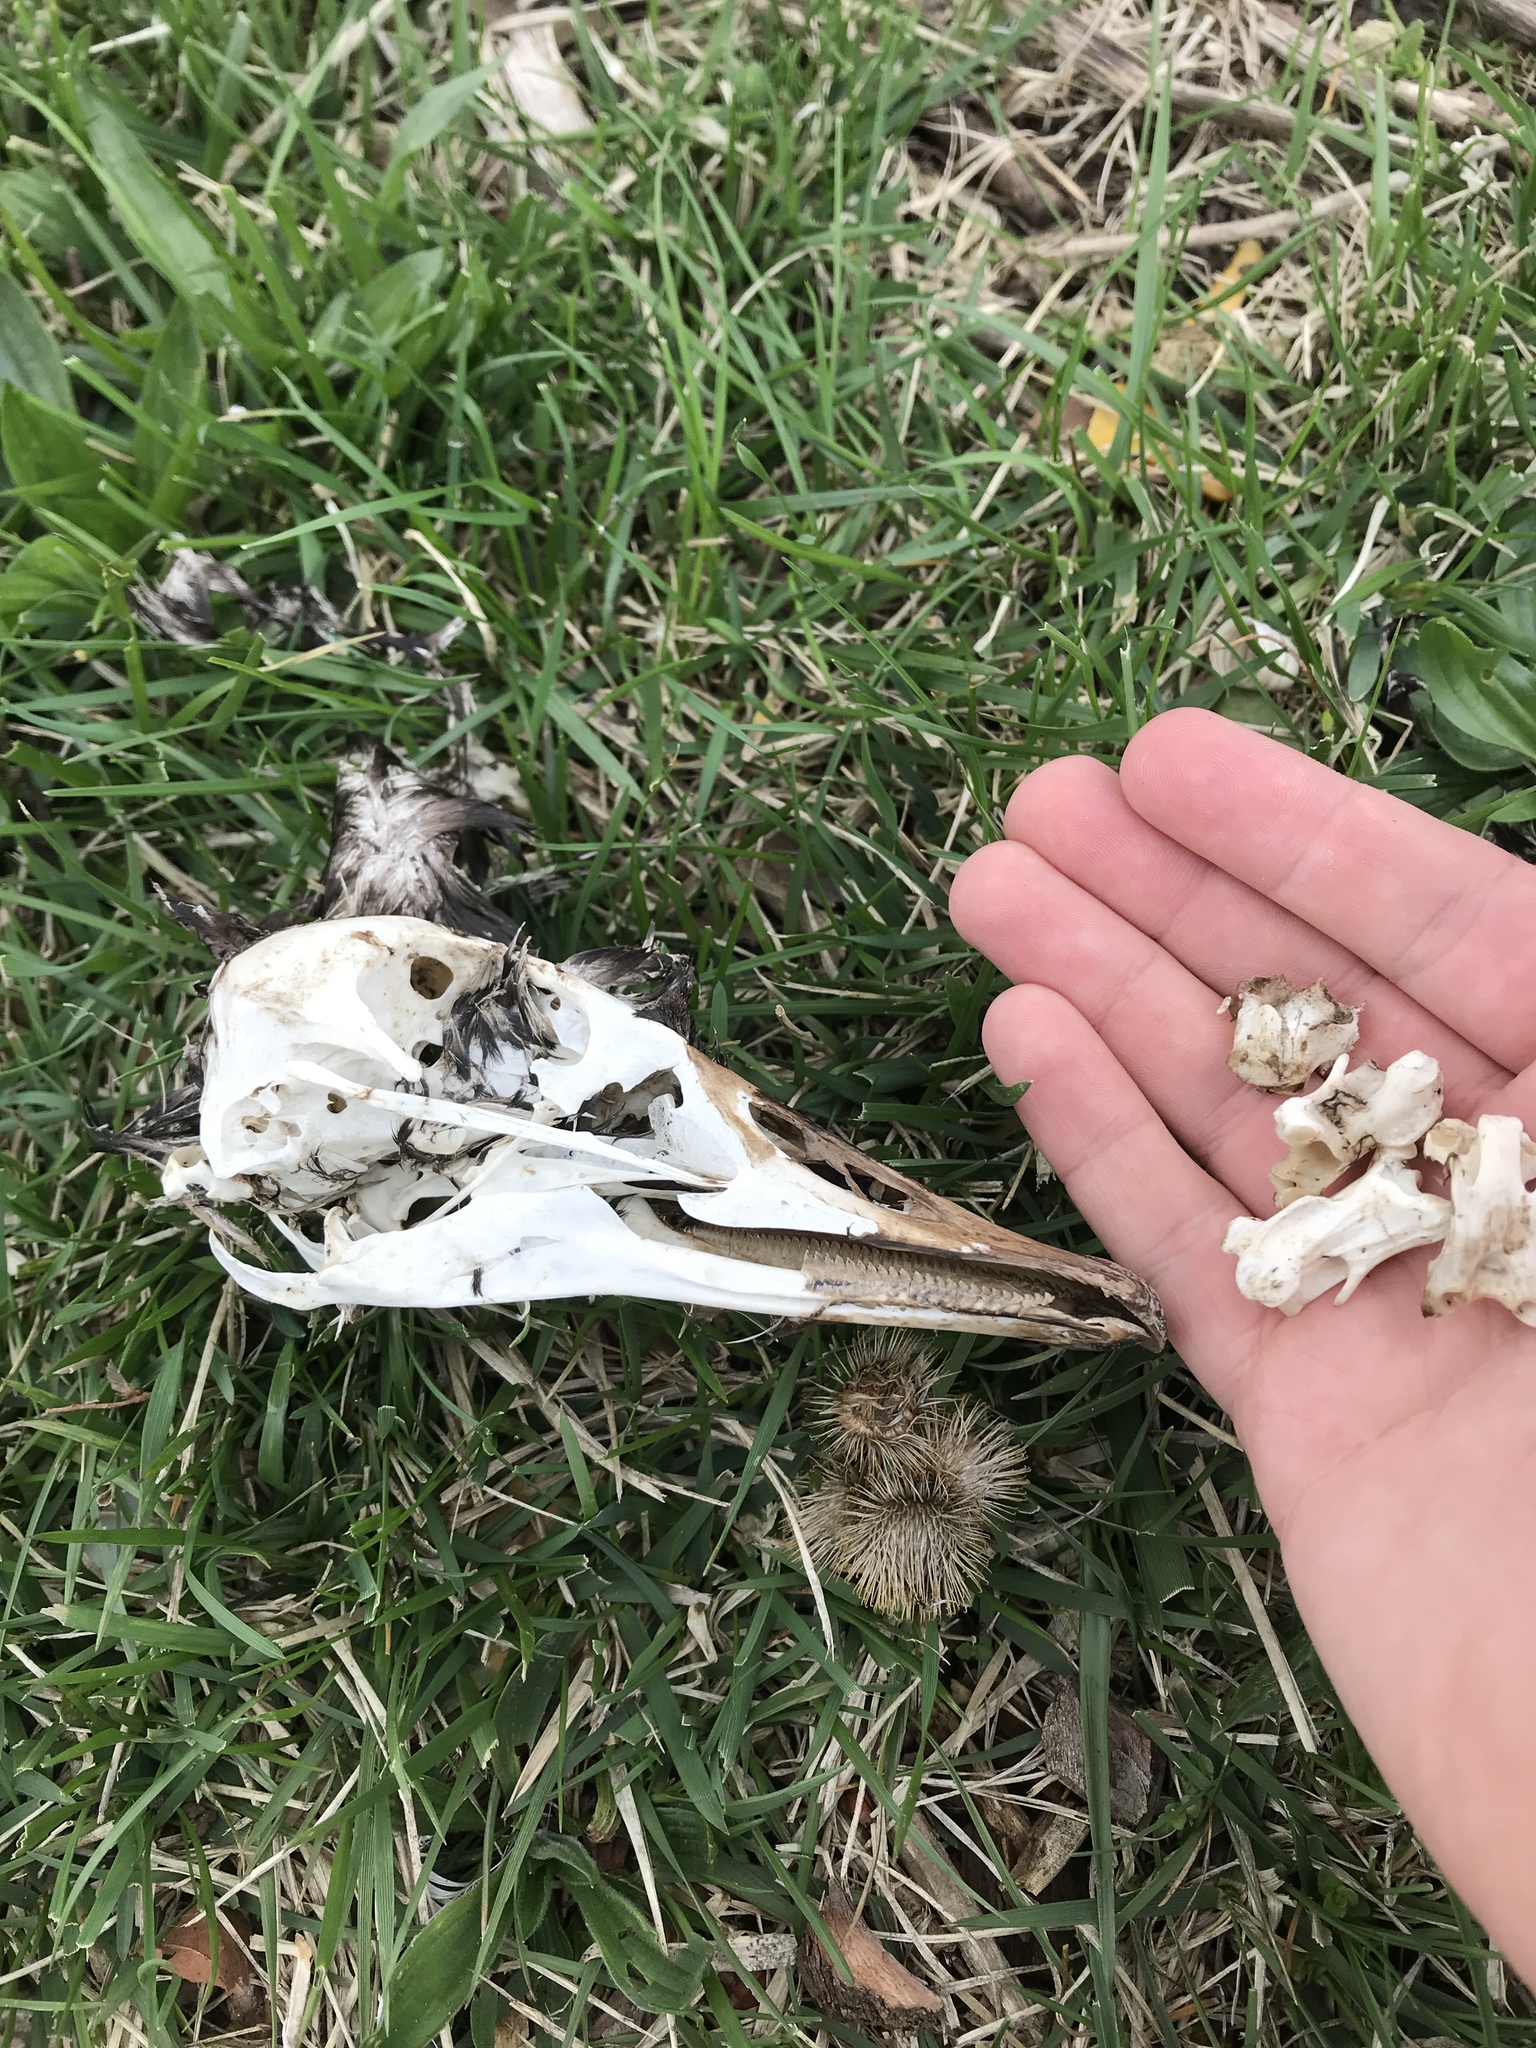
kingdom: Animalia
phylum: Chordata
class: Aves
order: Anseriformes
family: Anatidae
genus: Branta
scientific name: Branta canadensis
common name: Canada goose
